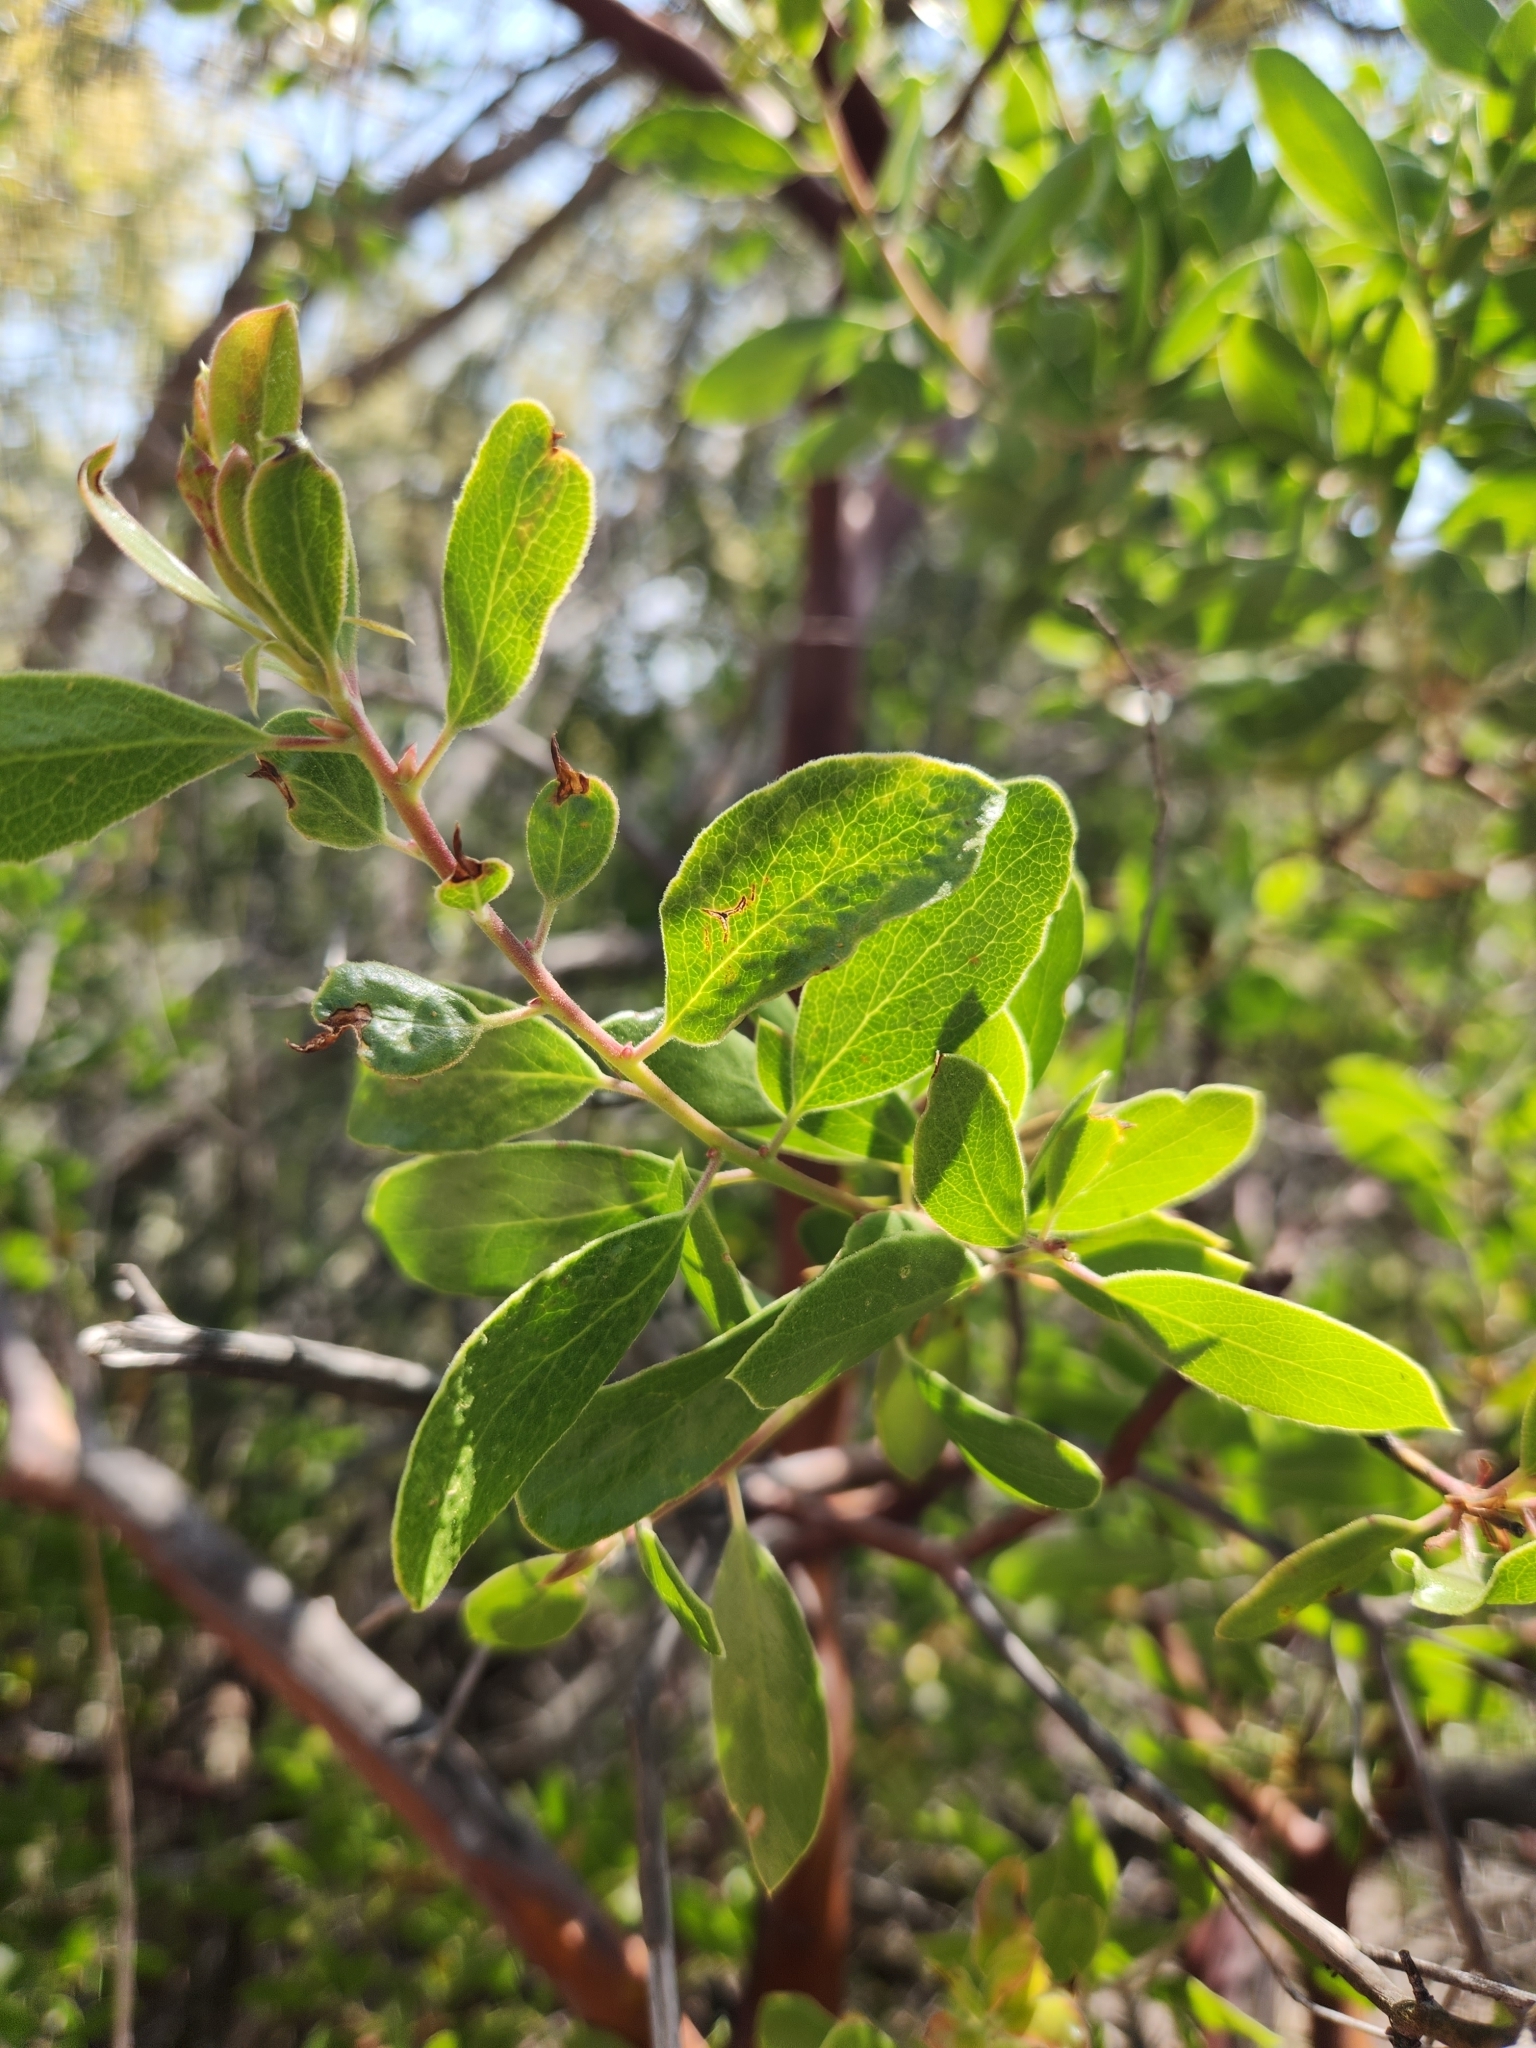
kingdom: Plantae
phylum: Tracheophyta
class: Magnoliopsida
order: Ericales
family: Ericaceae
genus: Arctostaphylos
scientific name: Arctostaphylos pungens
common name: Mexican manzanita
